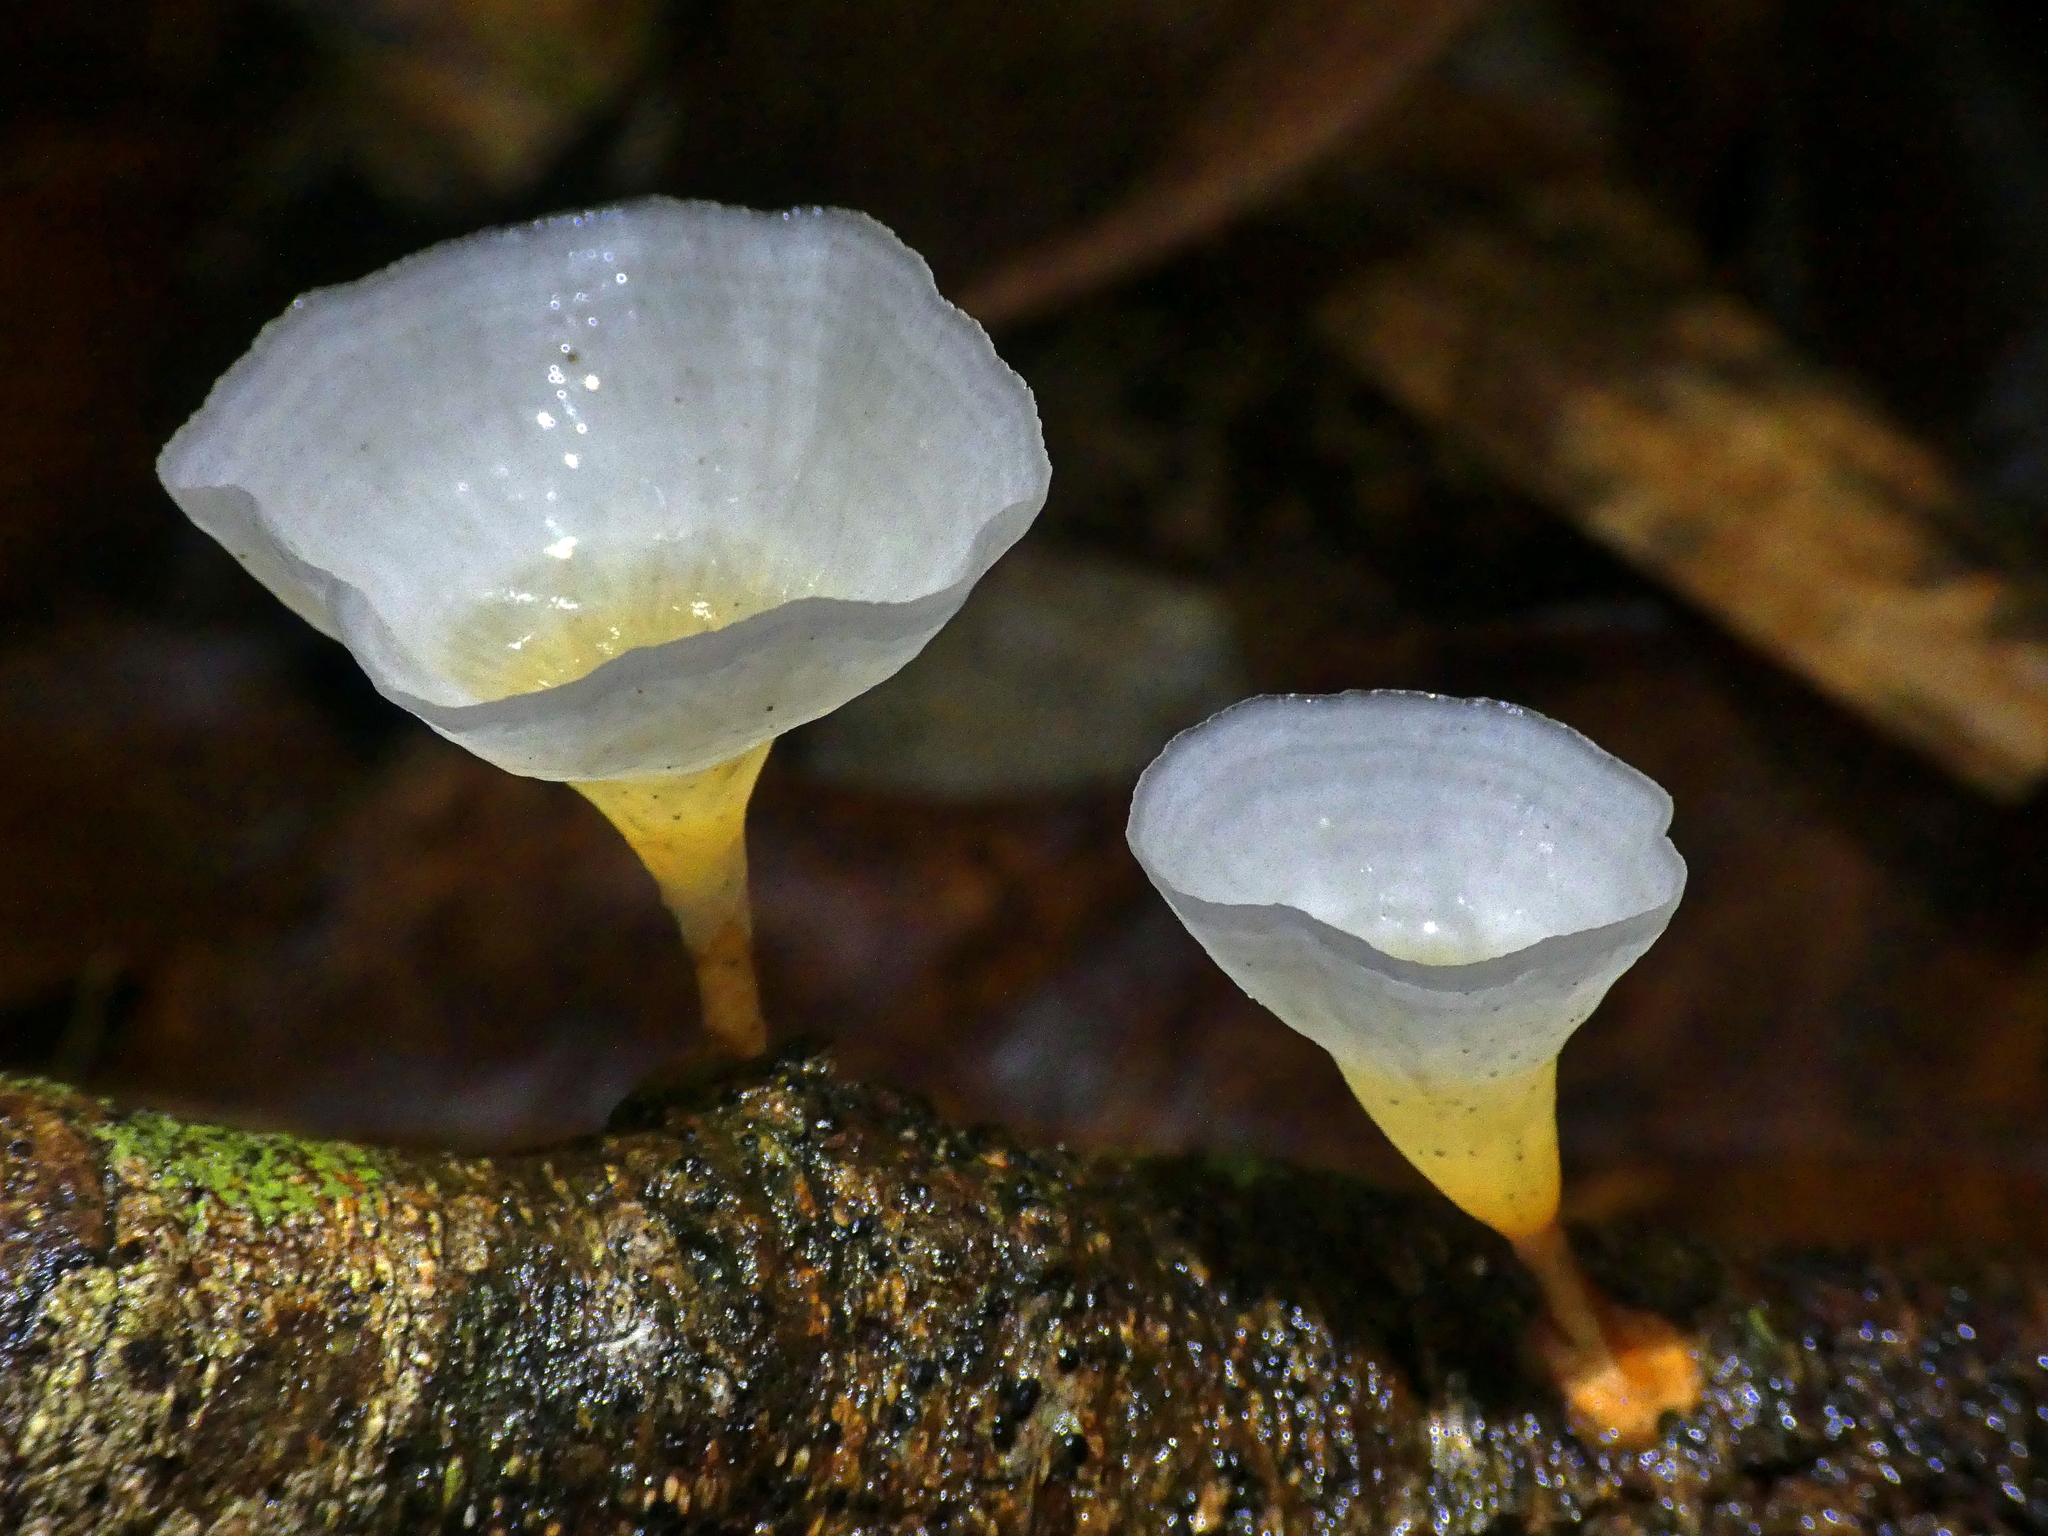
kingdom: Fungi
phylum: Basidiomycota
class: Agaricomycetes
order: Polyporales
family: Podoscyphaceae
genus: Podoscypha
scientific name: Podoscypha petalodes
